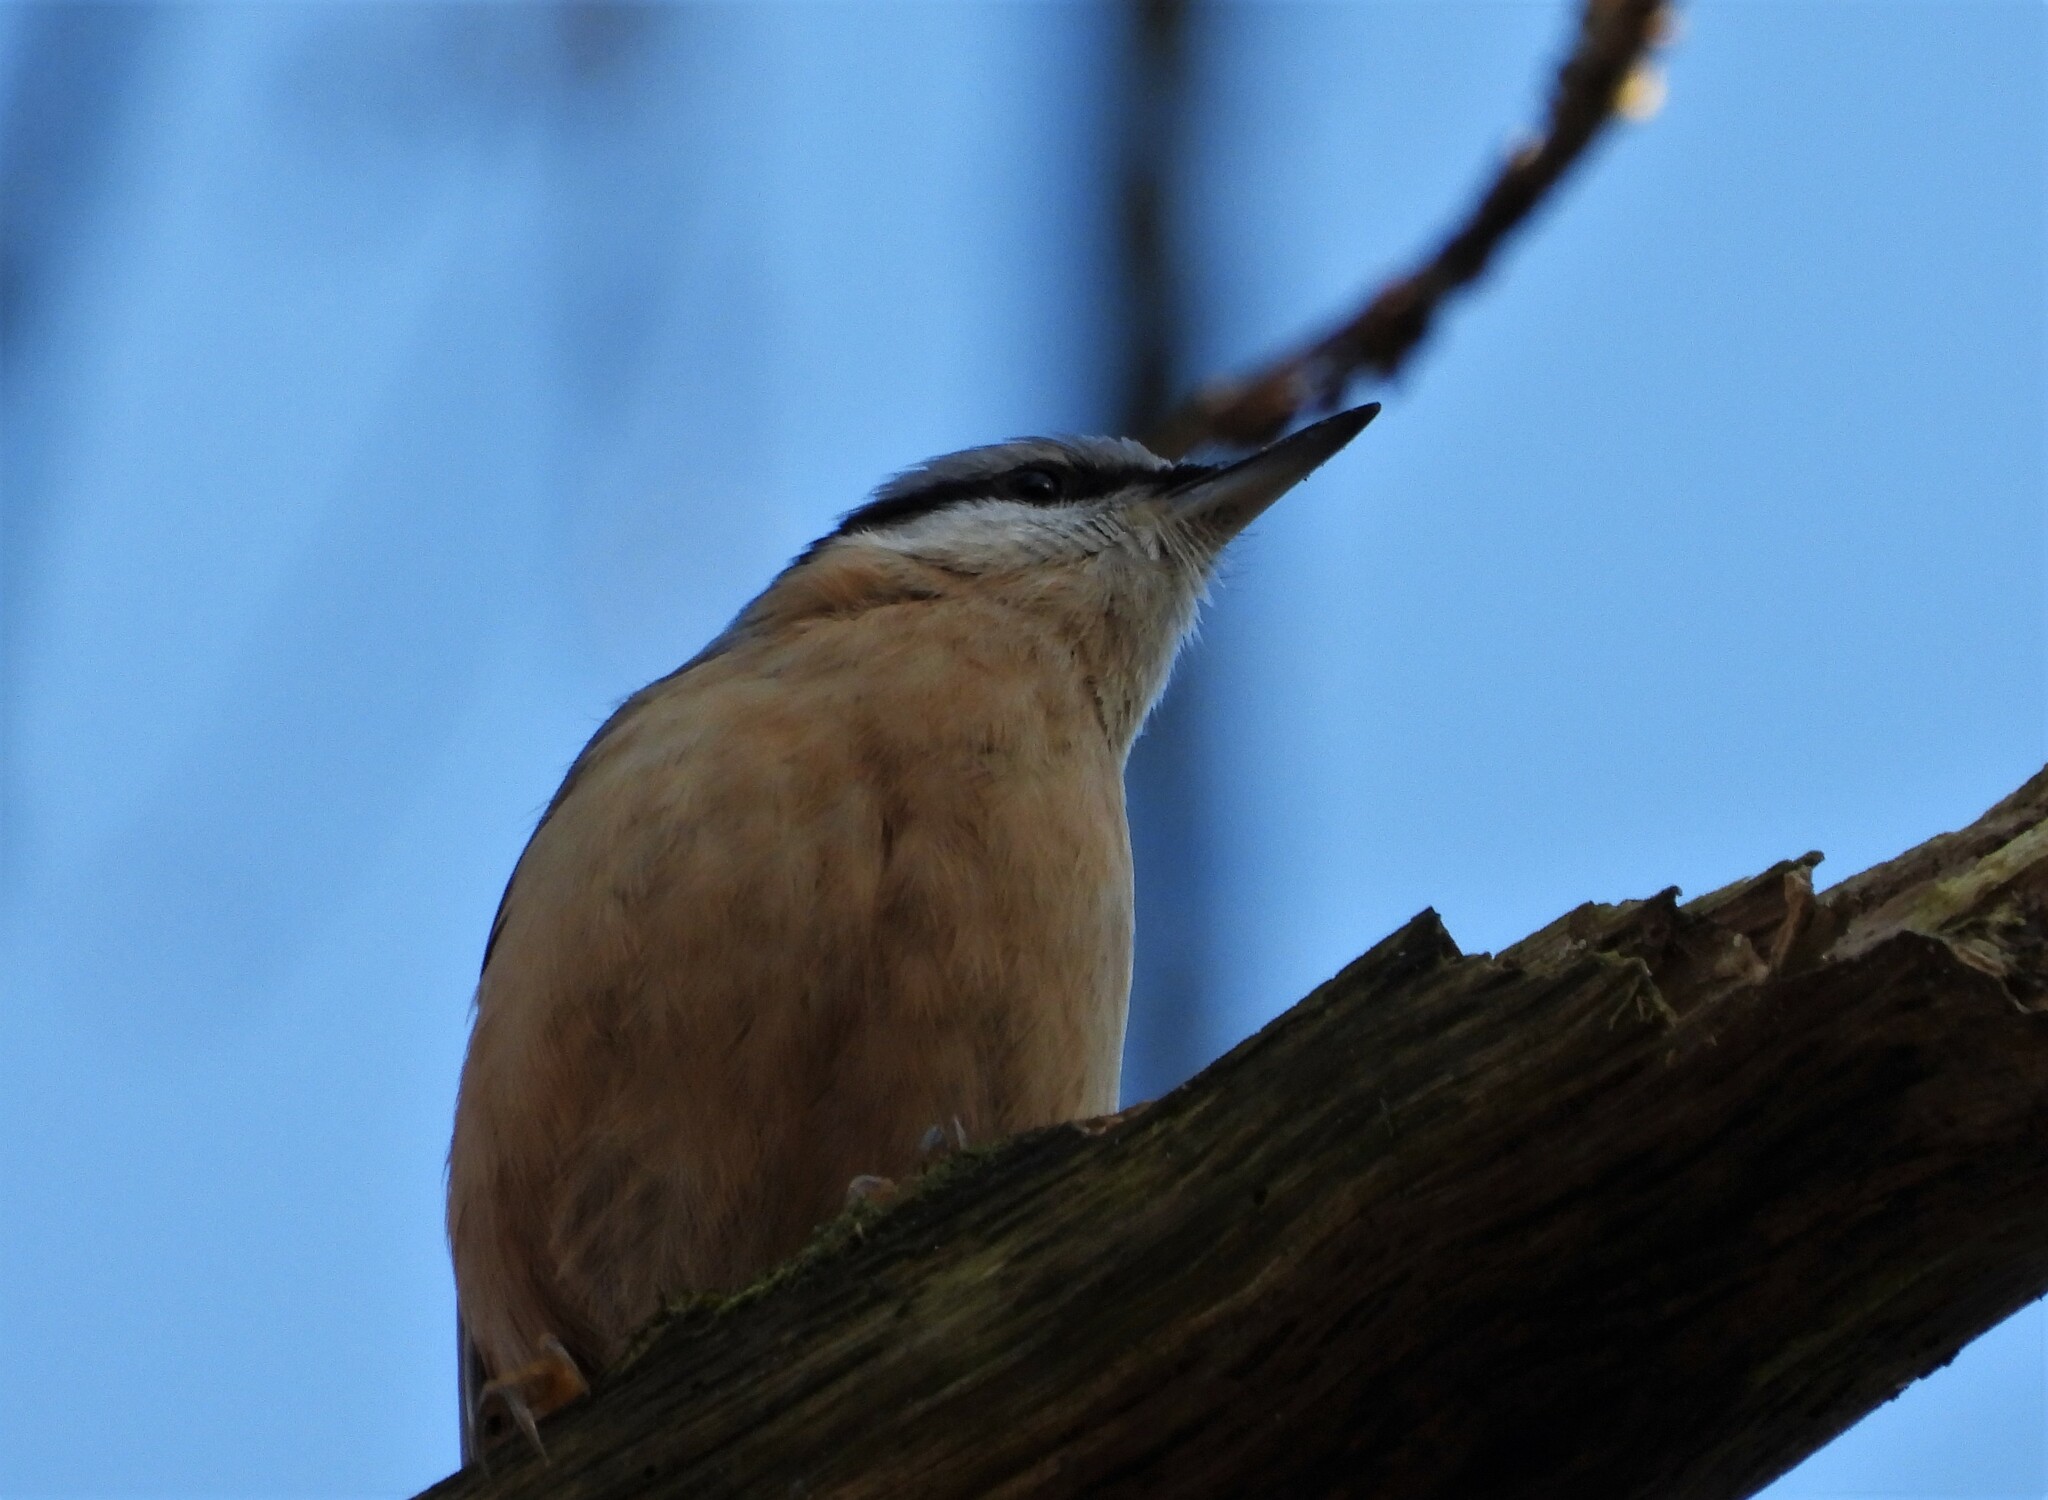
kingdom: Animalia
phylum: Chordata
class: Aves
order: Passeriformes
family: Sittidae
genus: Sitta
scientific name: Sitta europaea
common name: Eurasian nuthatch
